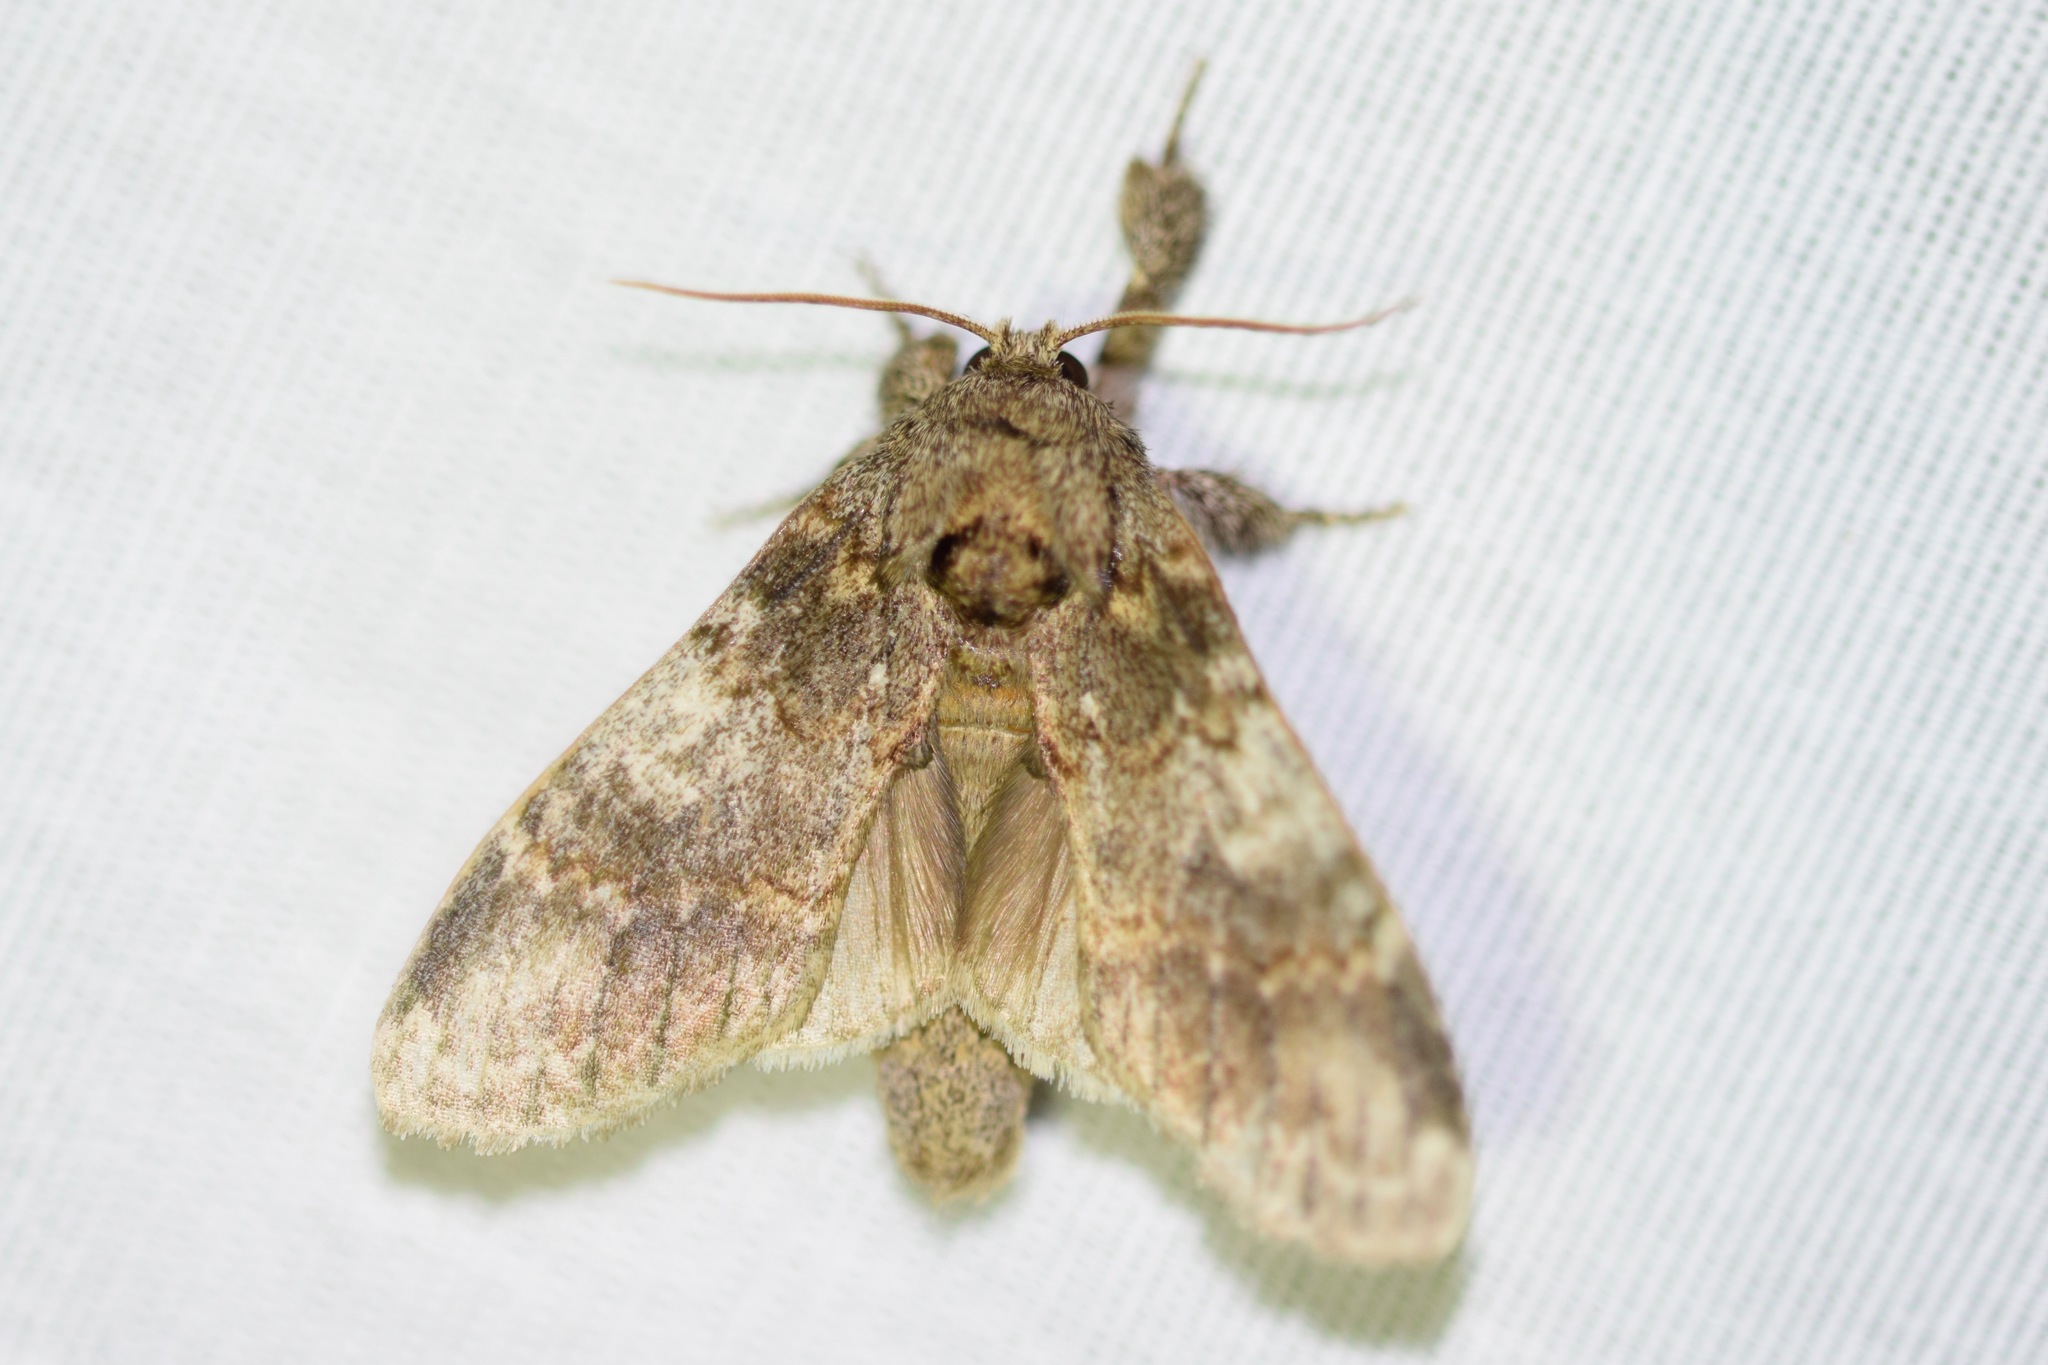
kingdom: Animalia
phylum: Arthropoda
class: Insecta
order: Lepidoptera
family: Notodontidae
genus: Peridea
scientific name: Peridea angulosa
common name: Angulose prominent
